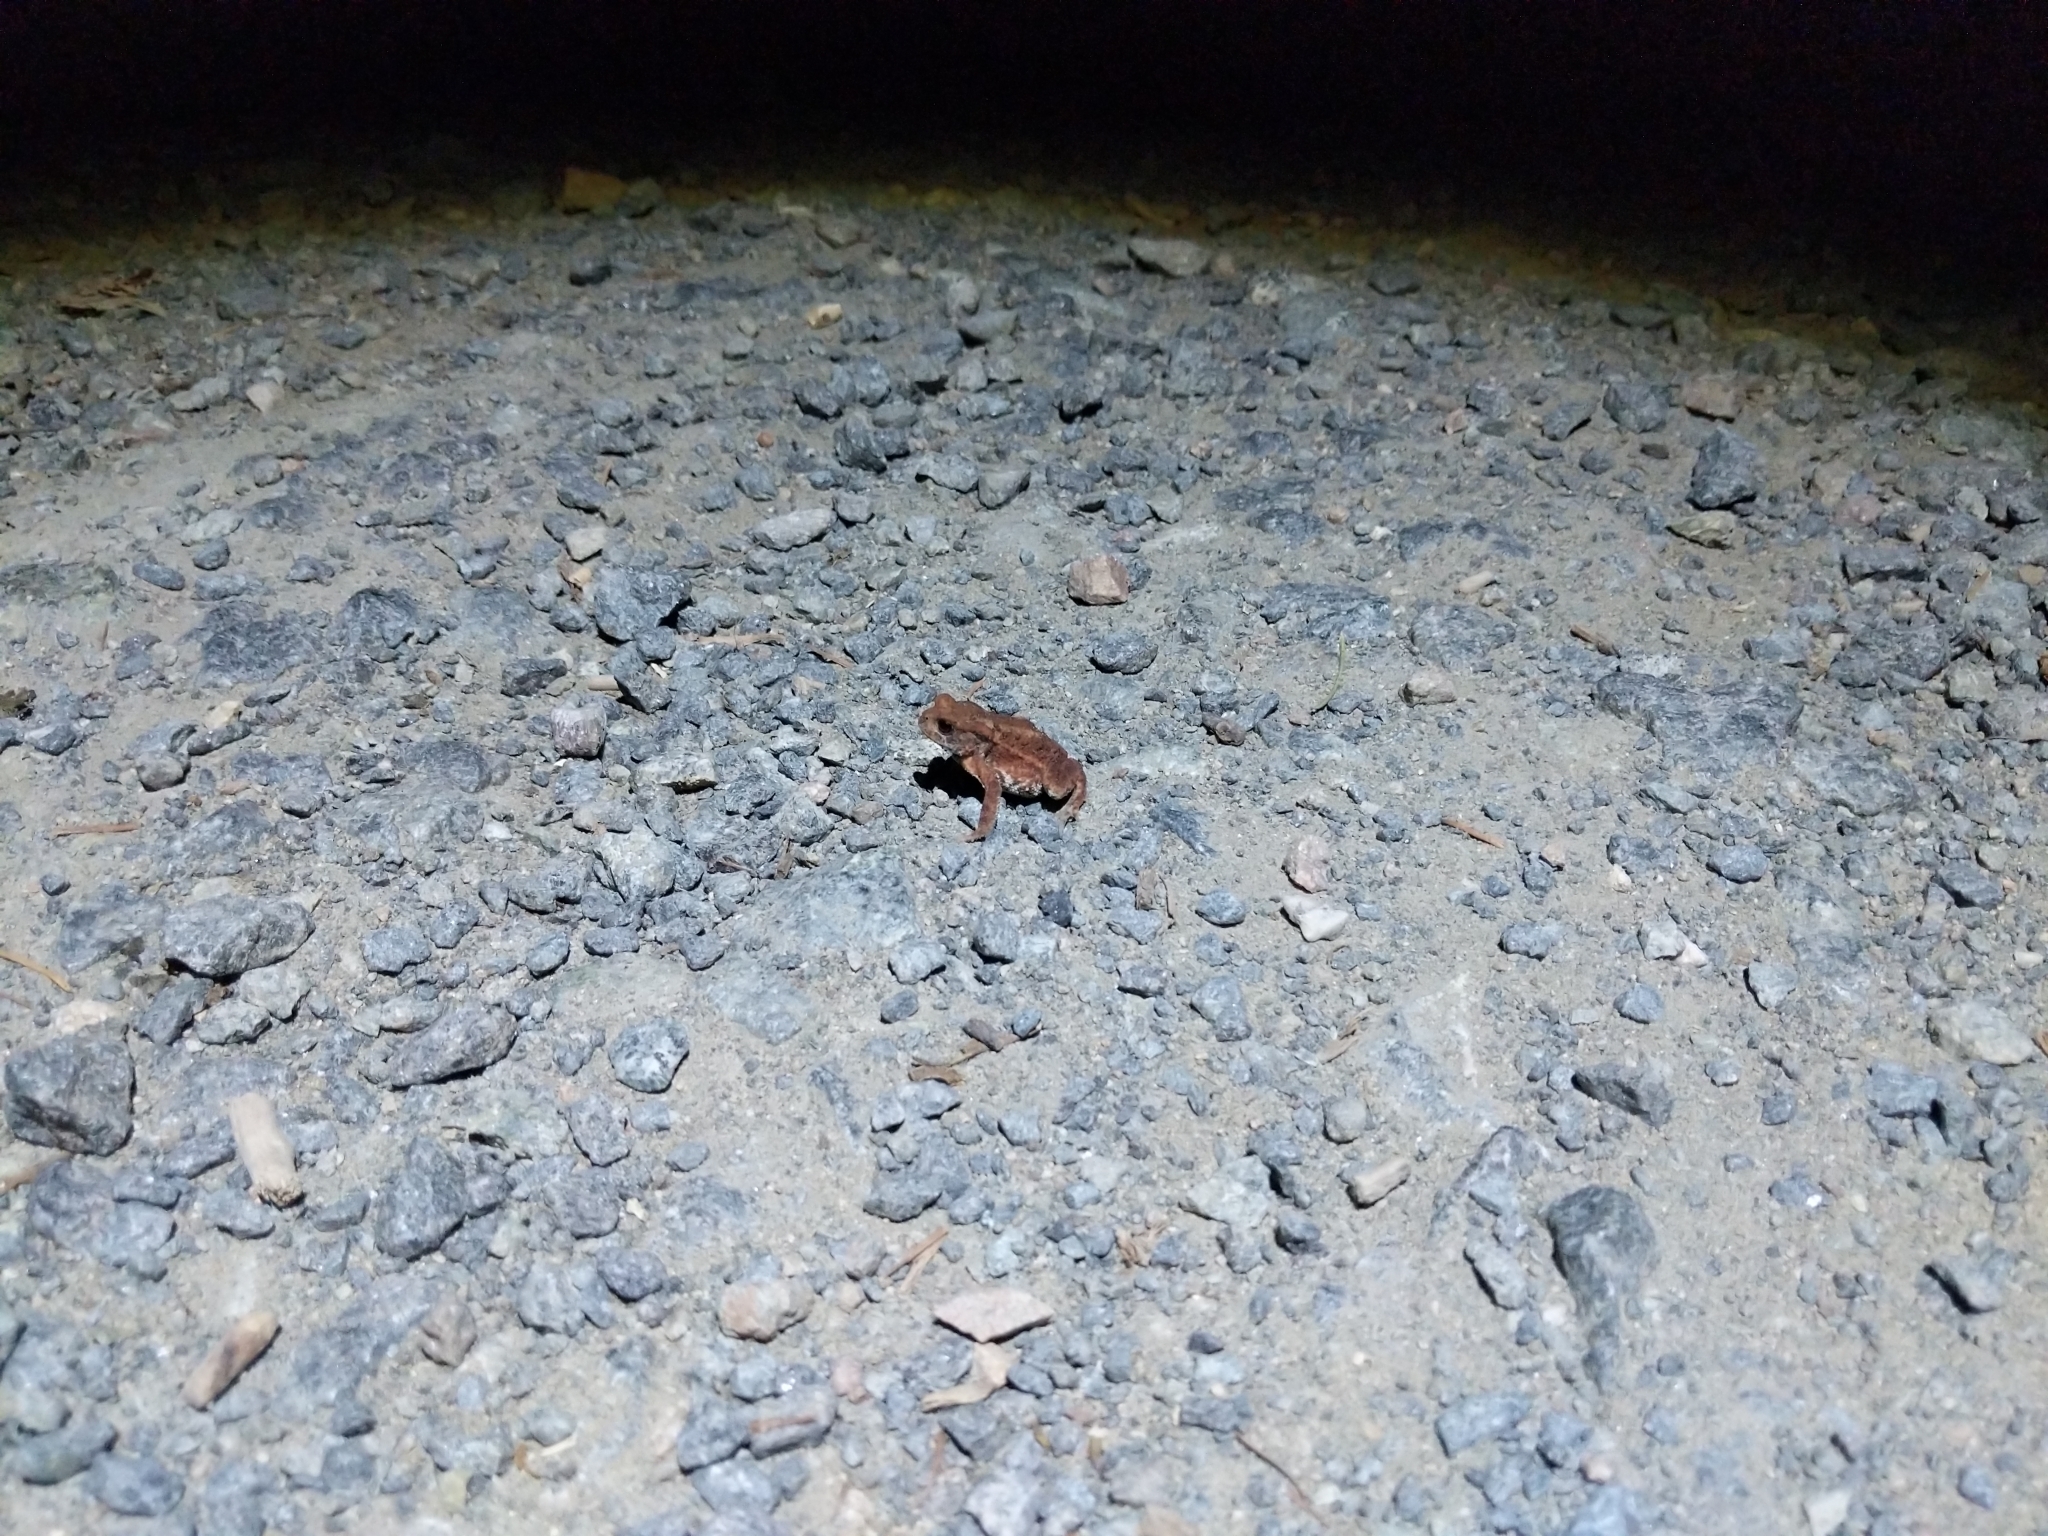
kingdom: Animalia
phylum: Chordata
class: Amphibia
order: Anura
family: Bufonidae
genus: Bufo
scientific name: Bufo bufo
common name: Common toad
